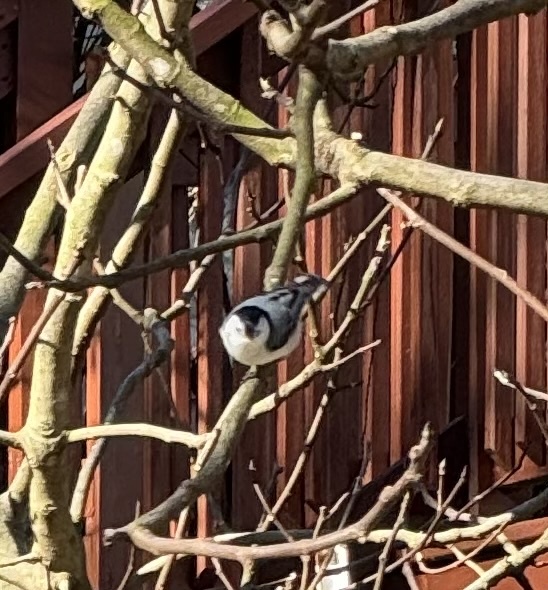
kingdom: Animalia
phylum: Chordata
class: Aves
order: Passeriformes
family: Sittidae
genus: Sitta
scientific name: Sitta carolinensis
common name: White-breasted nuthatch
